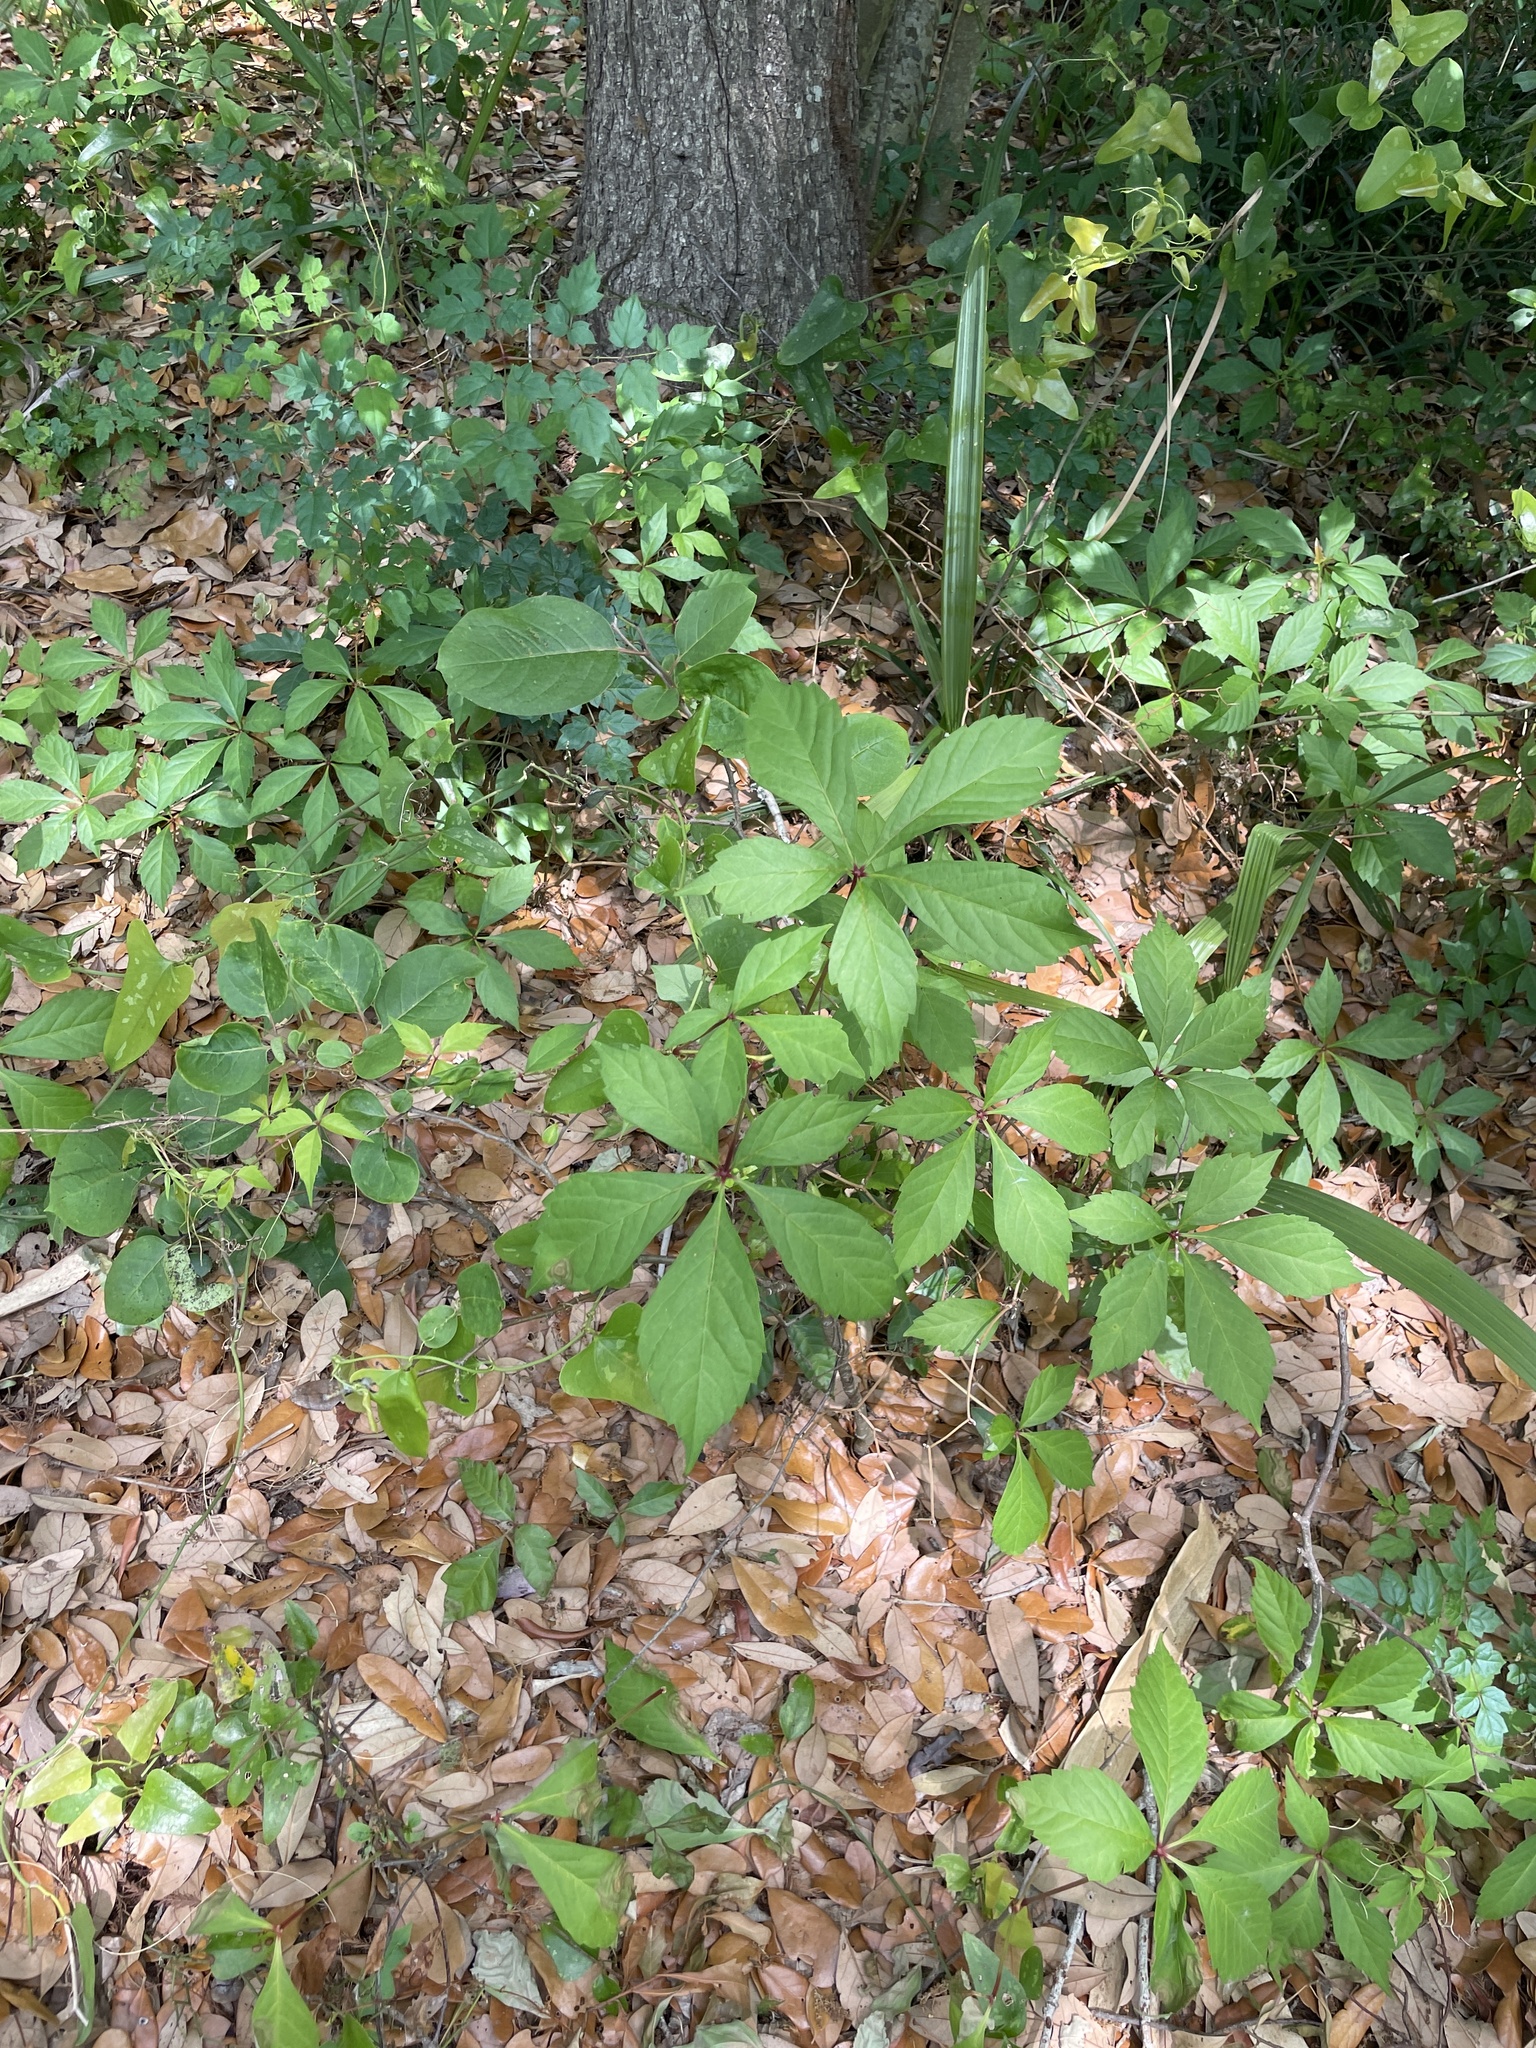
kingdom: Plantae
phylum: Tracheophyta
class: Magnoliopsida
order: Vitales
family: Vitaceae
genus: Parthenocissus
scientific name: Parthenocissus quinquefolia
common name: Virginia-creeper
